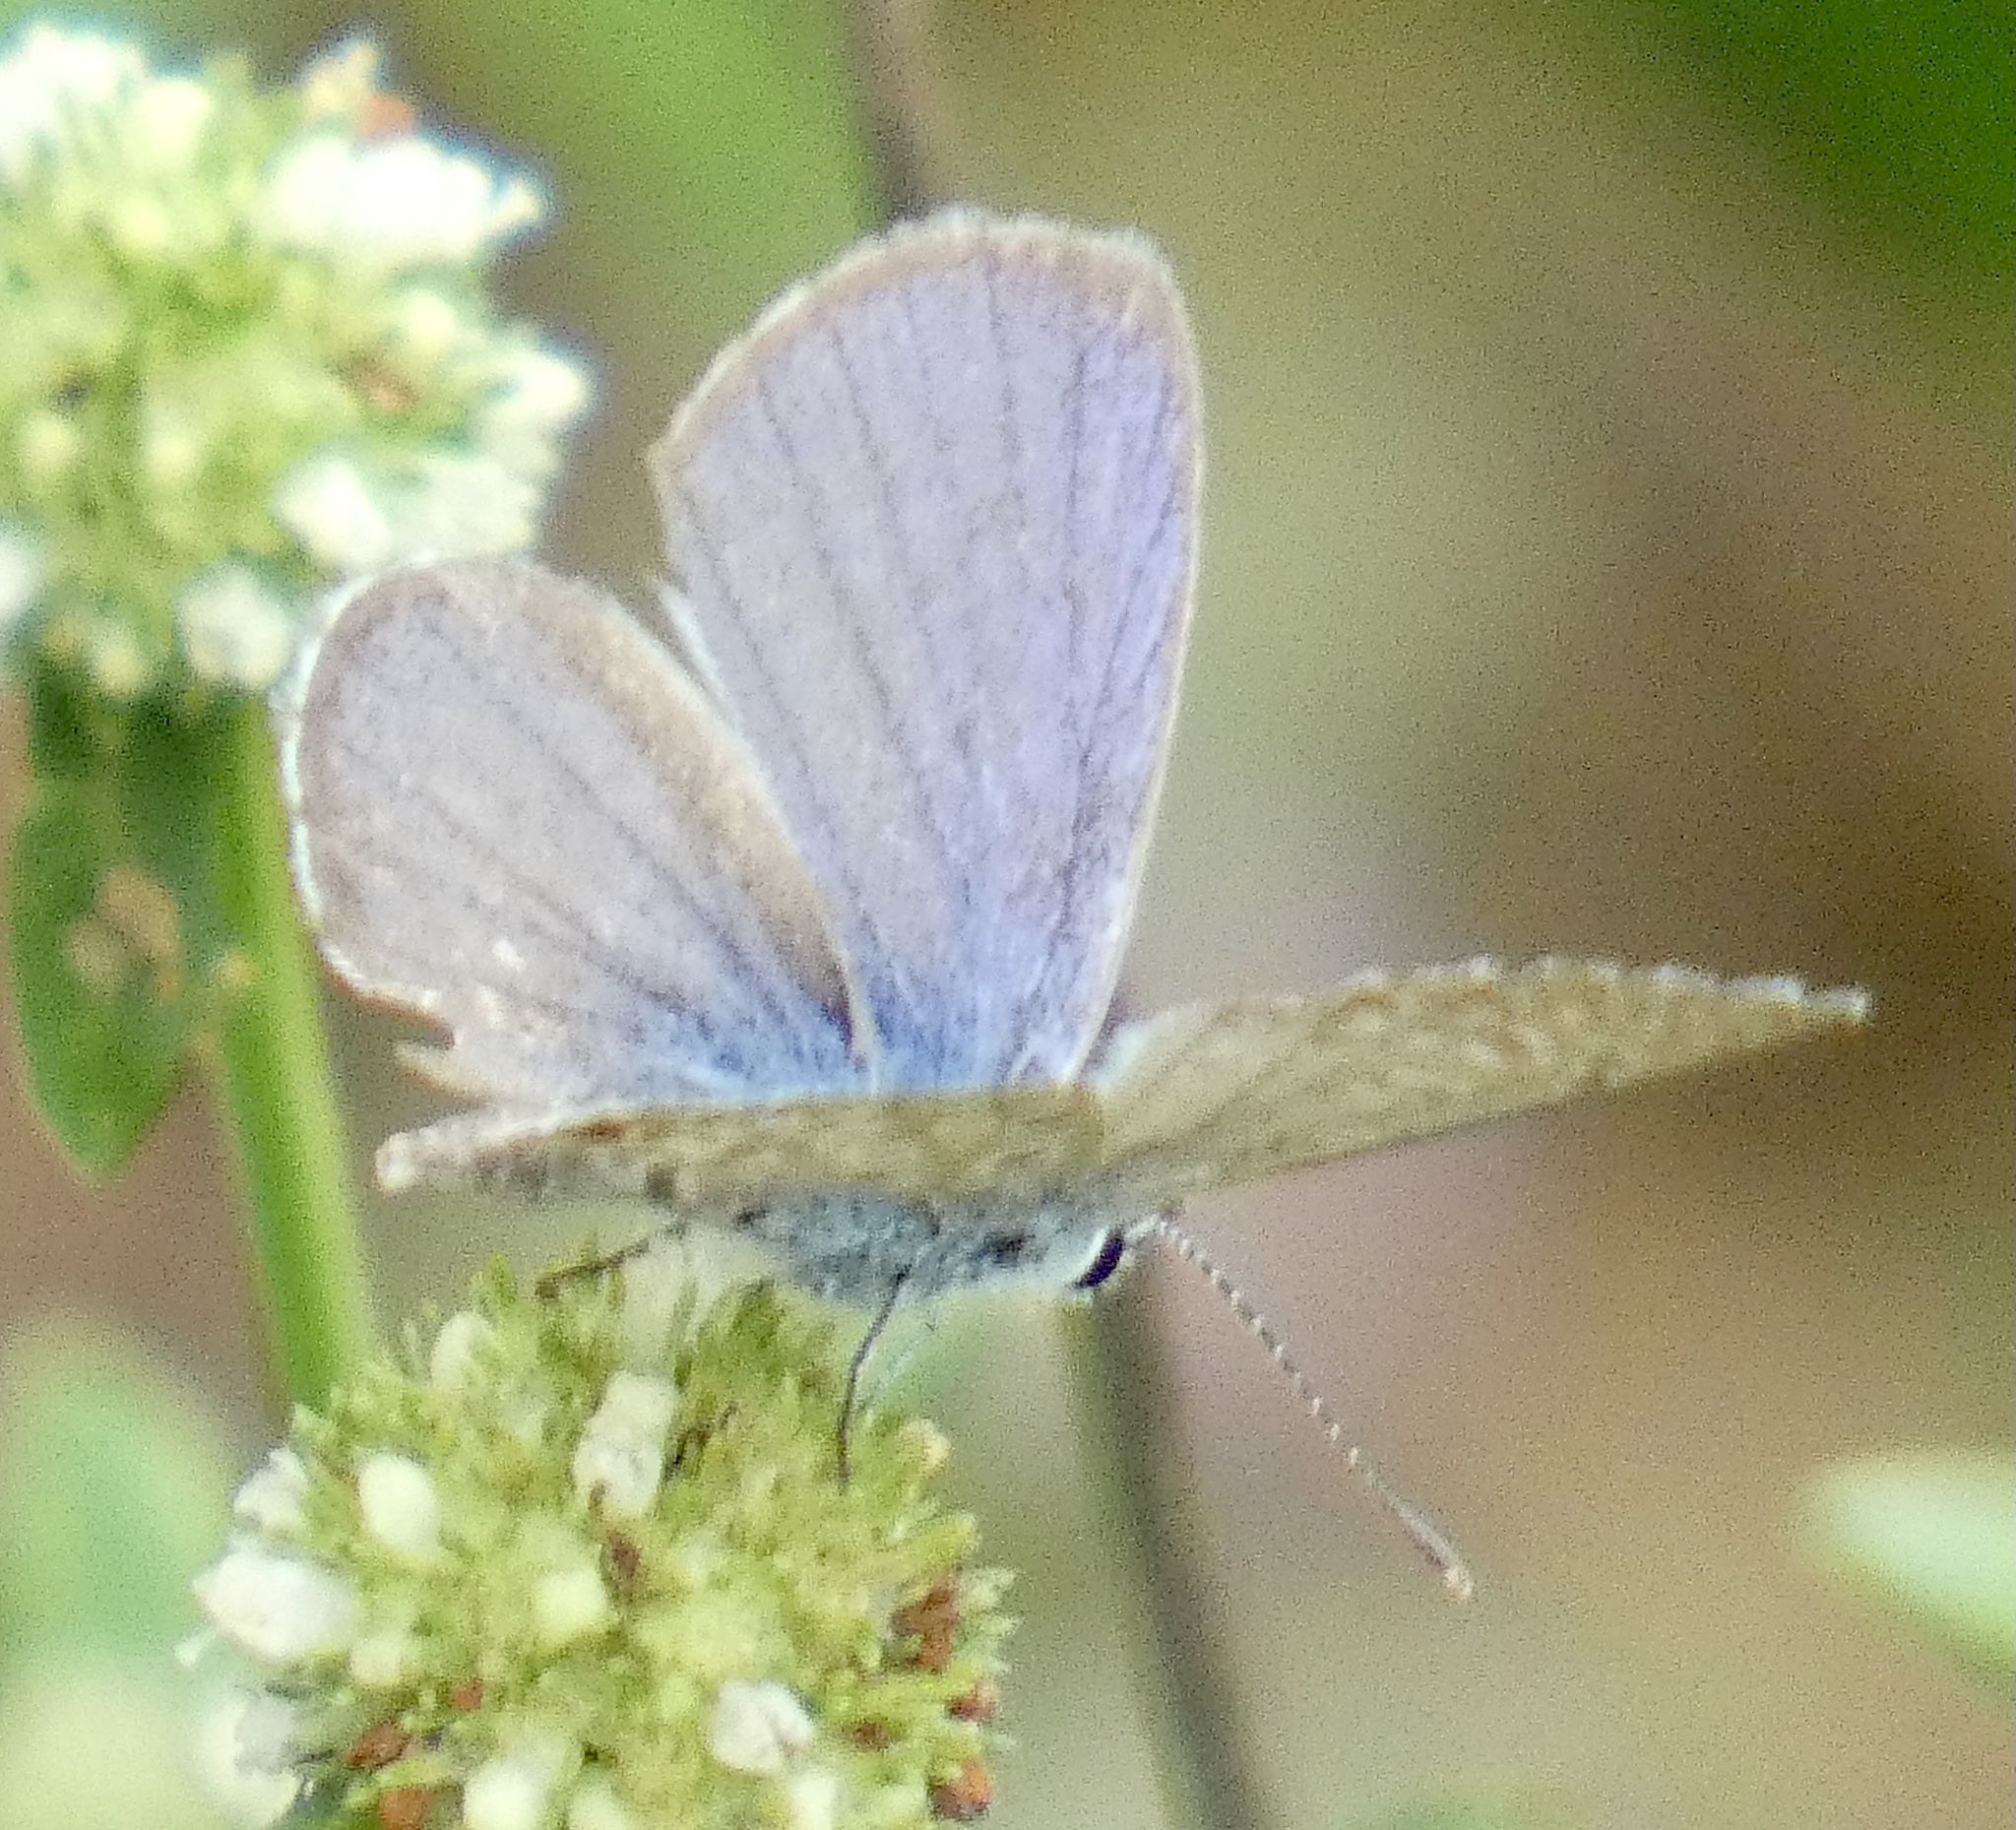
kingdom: Animalia
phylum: Arthropoda
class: Insecta
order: Lepidoptera
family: Lycaenidae
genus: Hemiargus
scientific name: Hemiargus hanno
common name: Common blue
